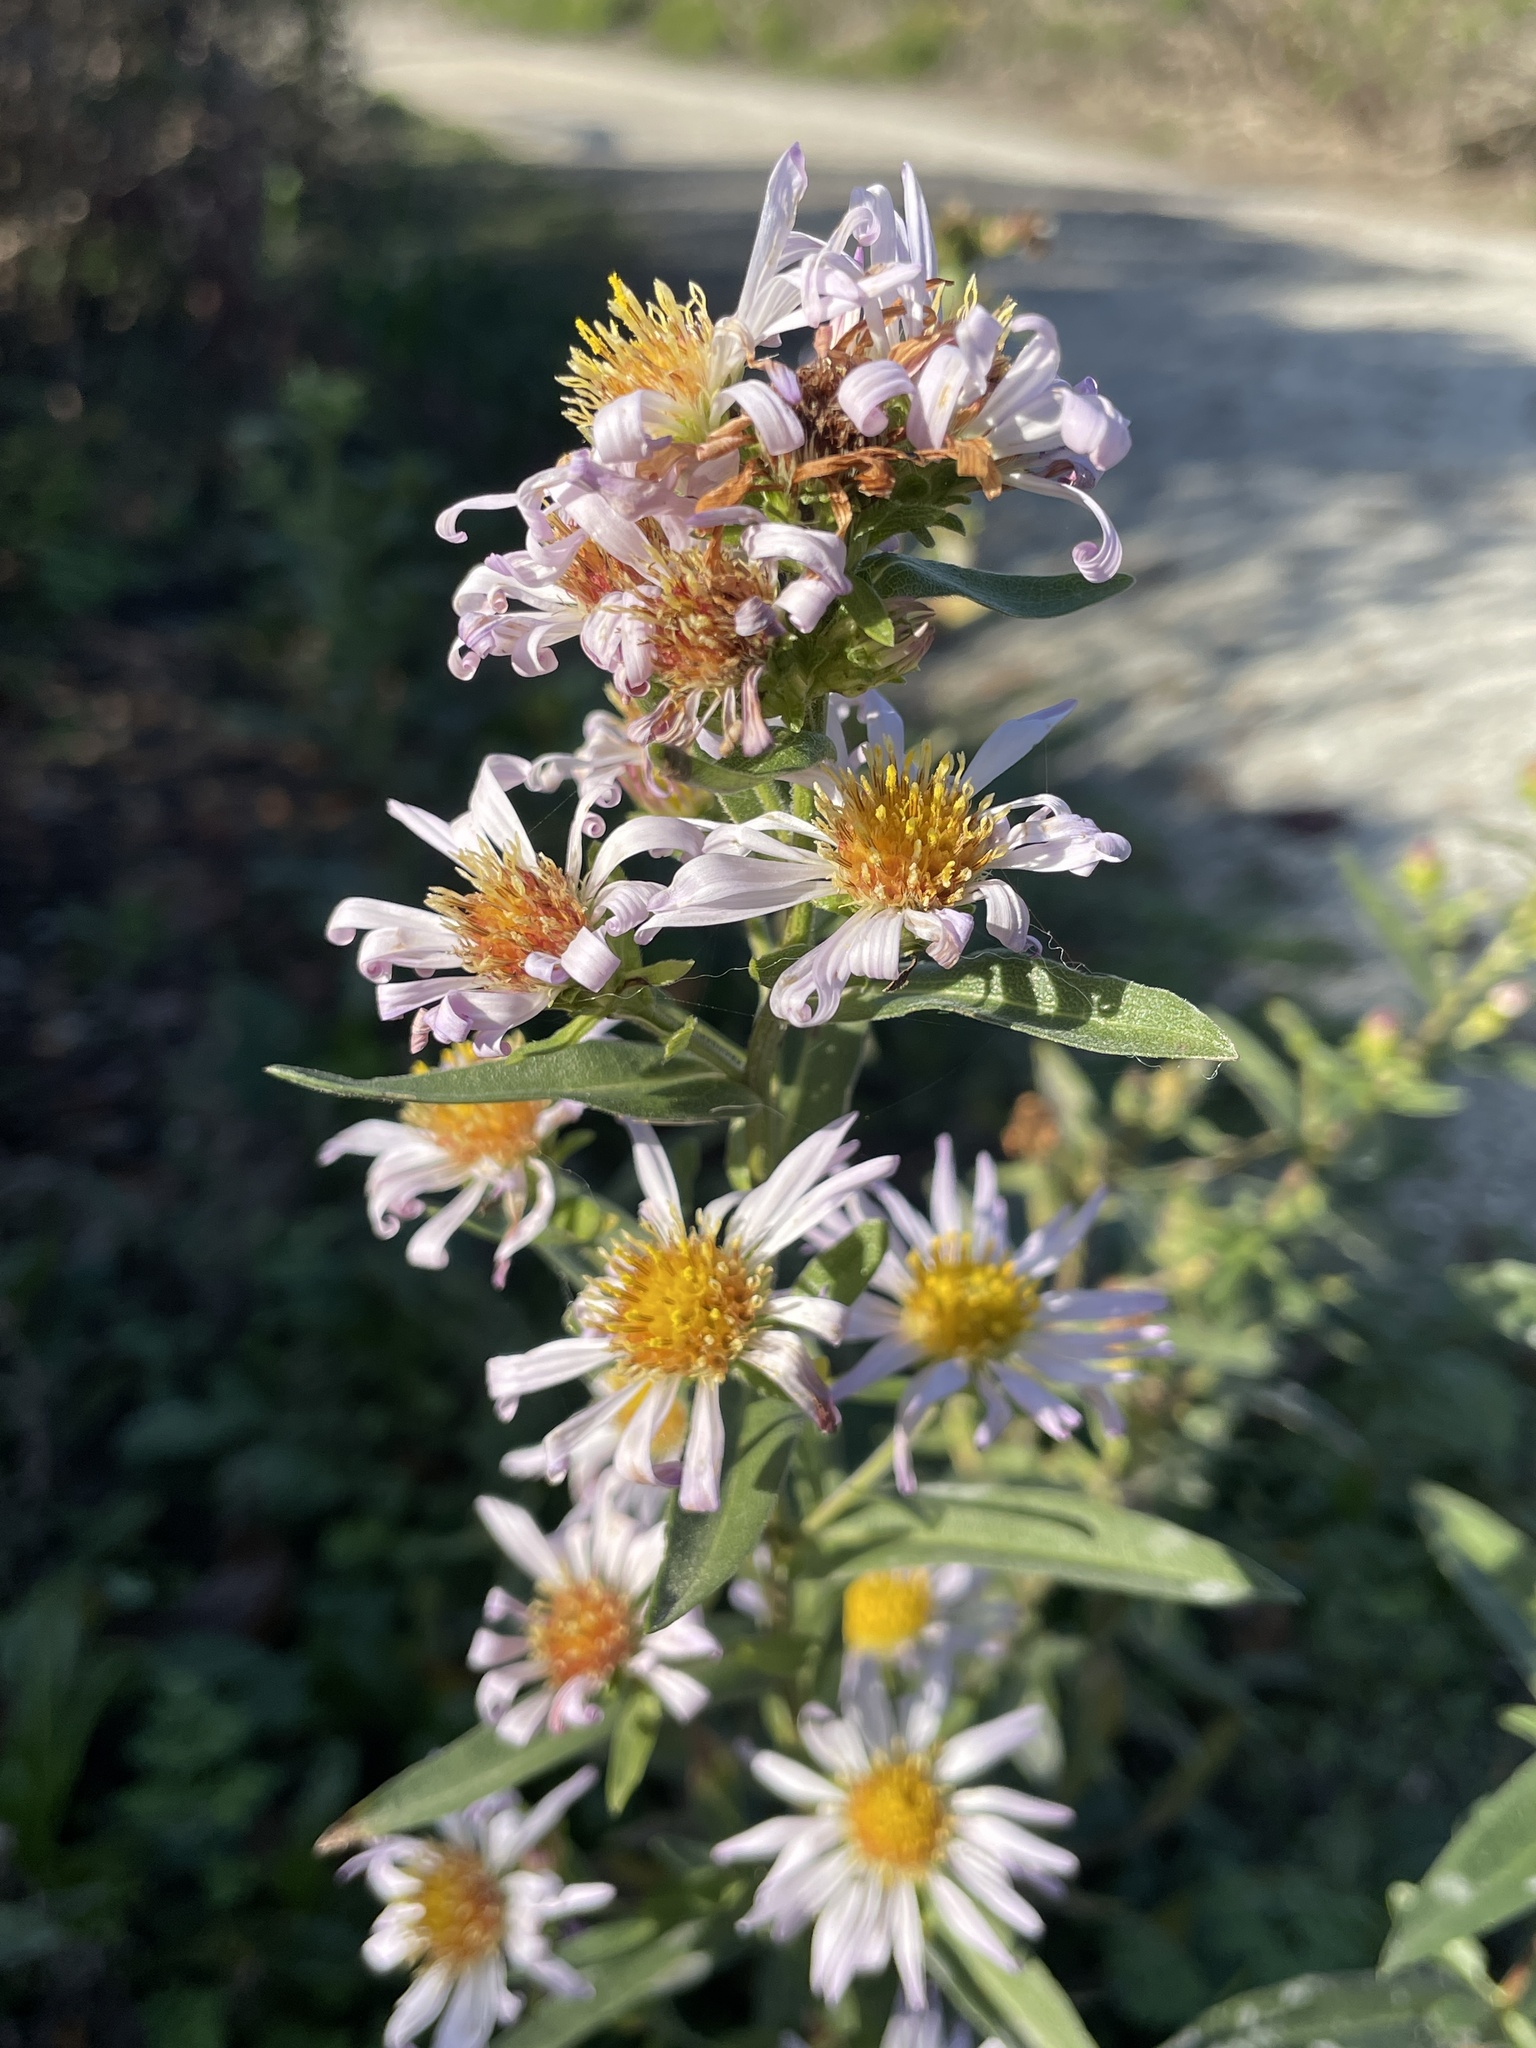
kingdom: Plantae
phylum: Tracheophyta
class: Magnoliopsida
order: Asterales
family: Asteraceae
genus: Symphyotrichum
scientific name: Symphyotrichum chilense
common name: Pacific aster
